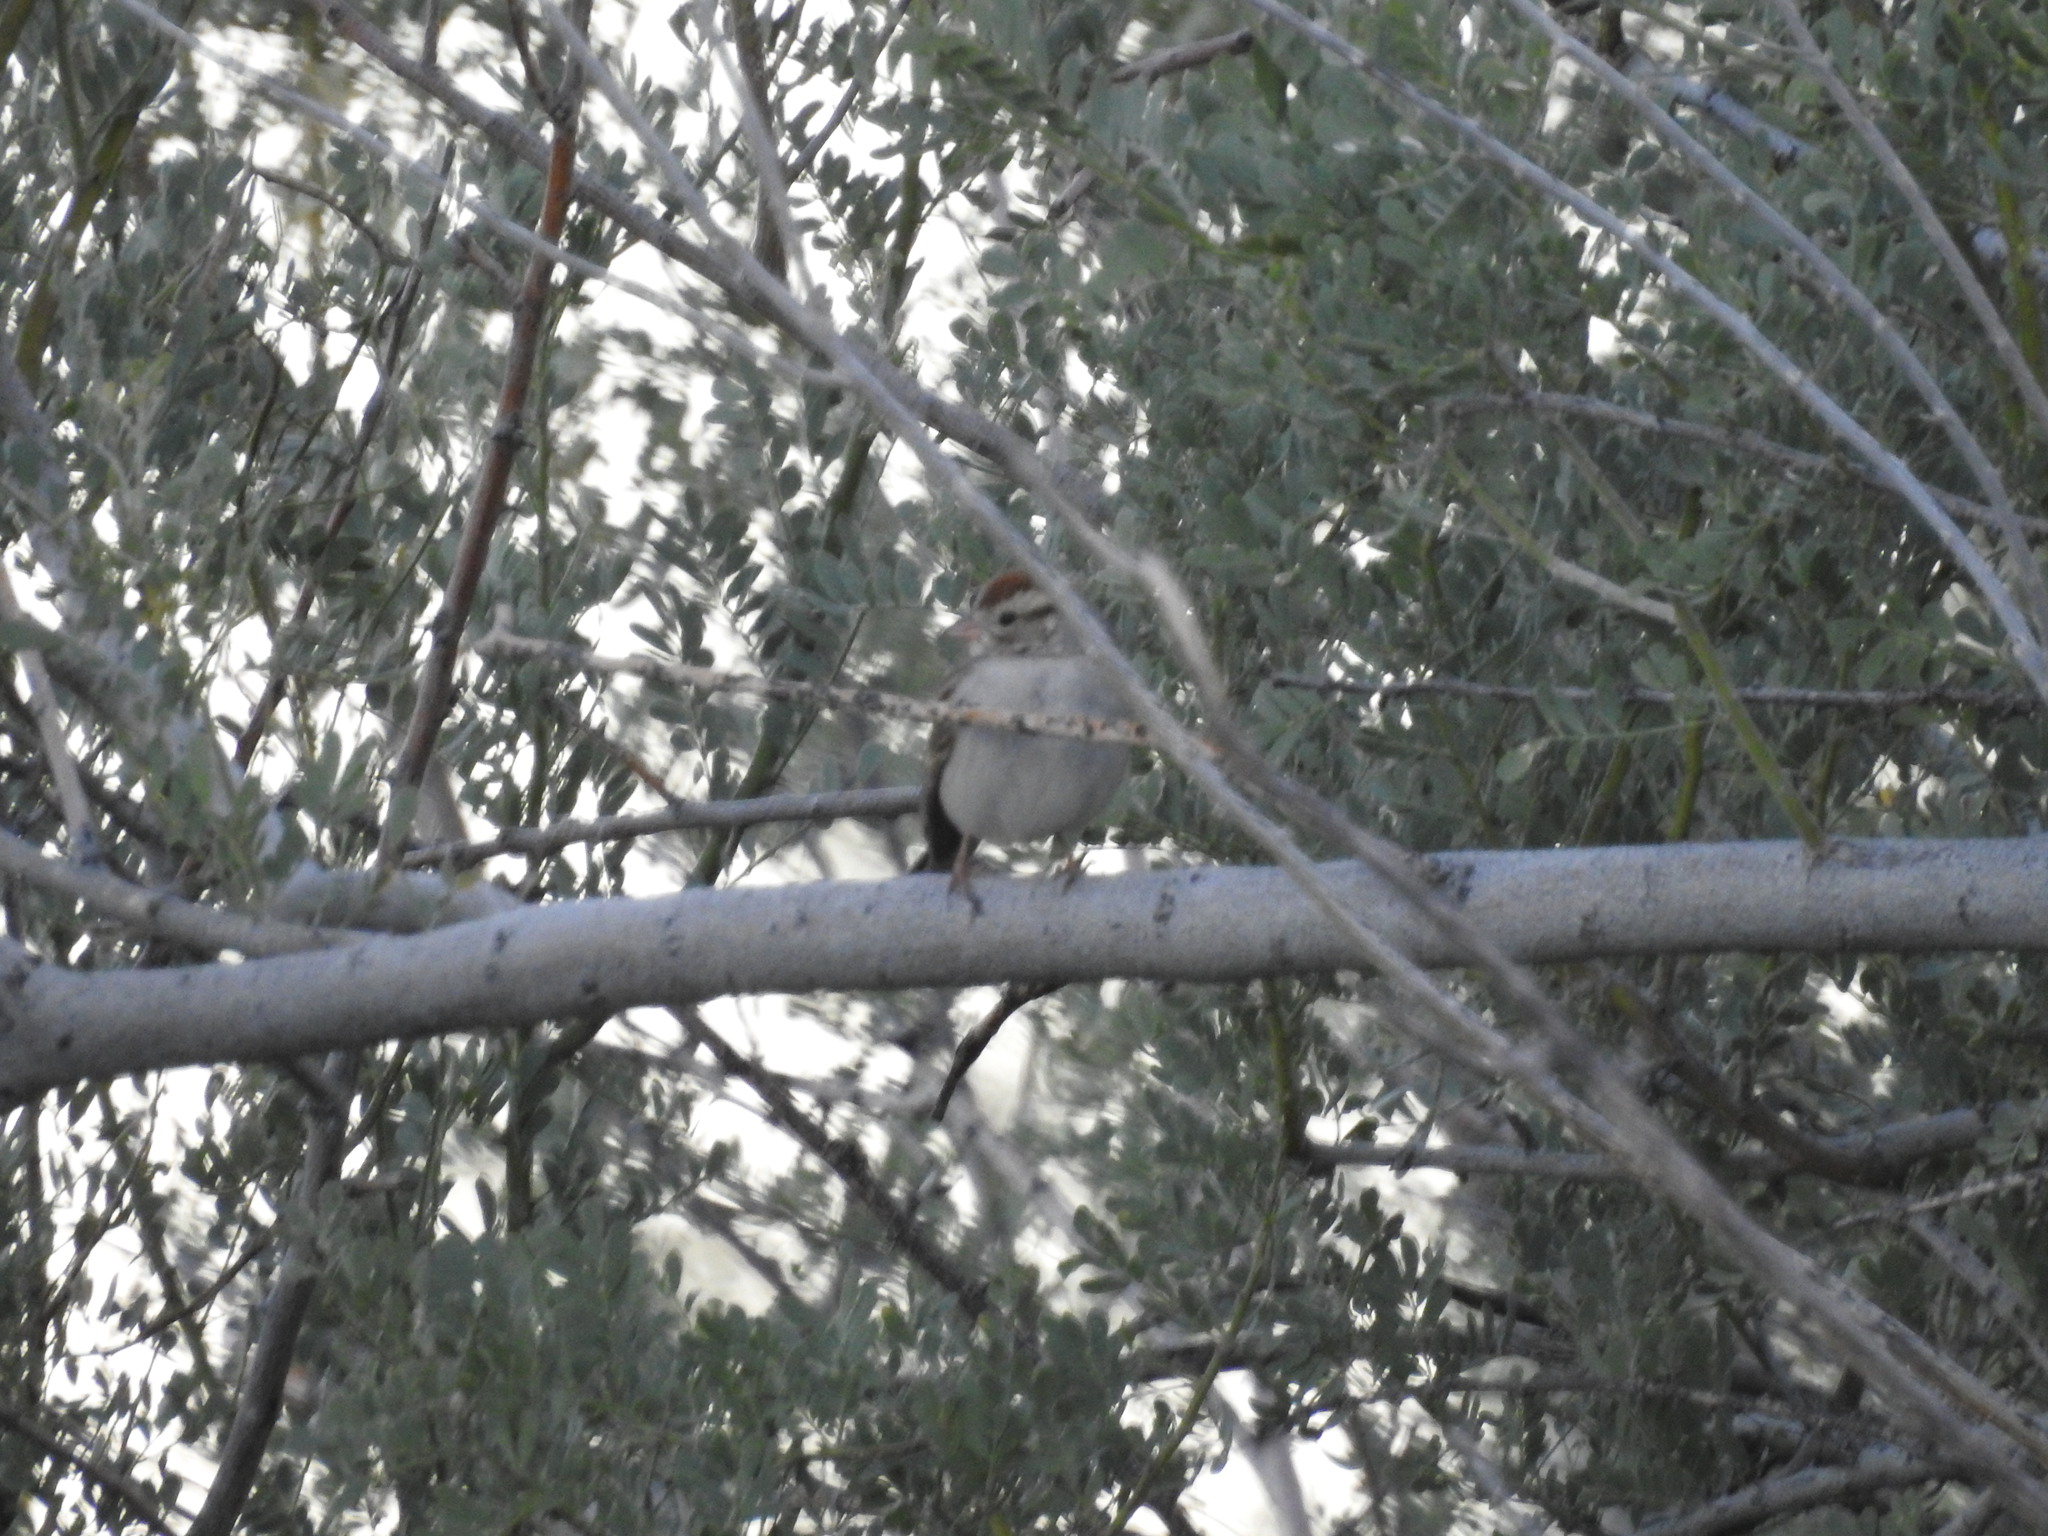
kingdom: Animalia
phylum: Chordata
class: Aves
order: Passeriformes
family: Passerellidae
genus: Spizella
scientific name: Spizella passerina
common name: Chipping sparrow
